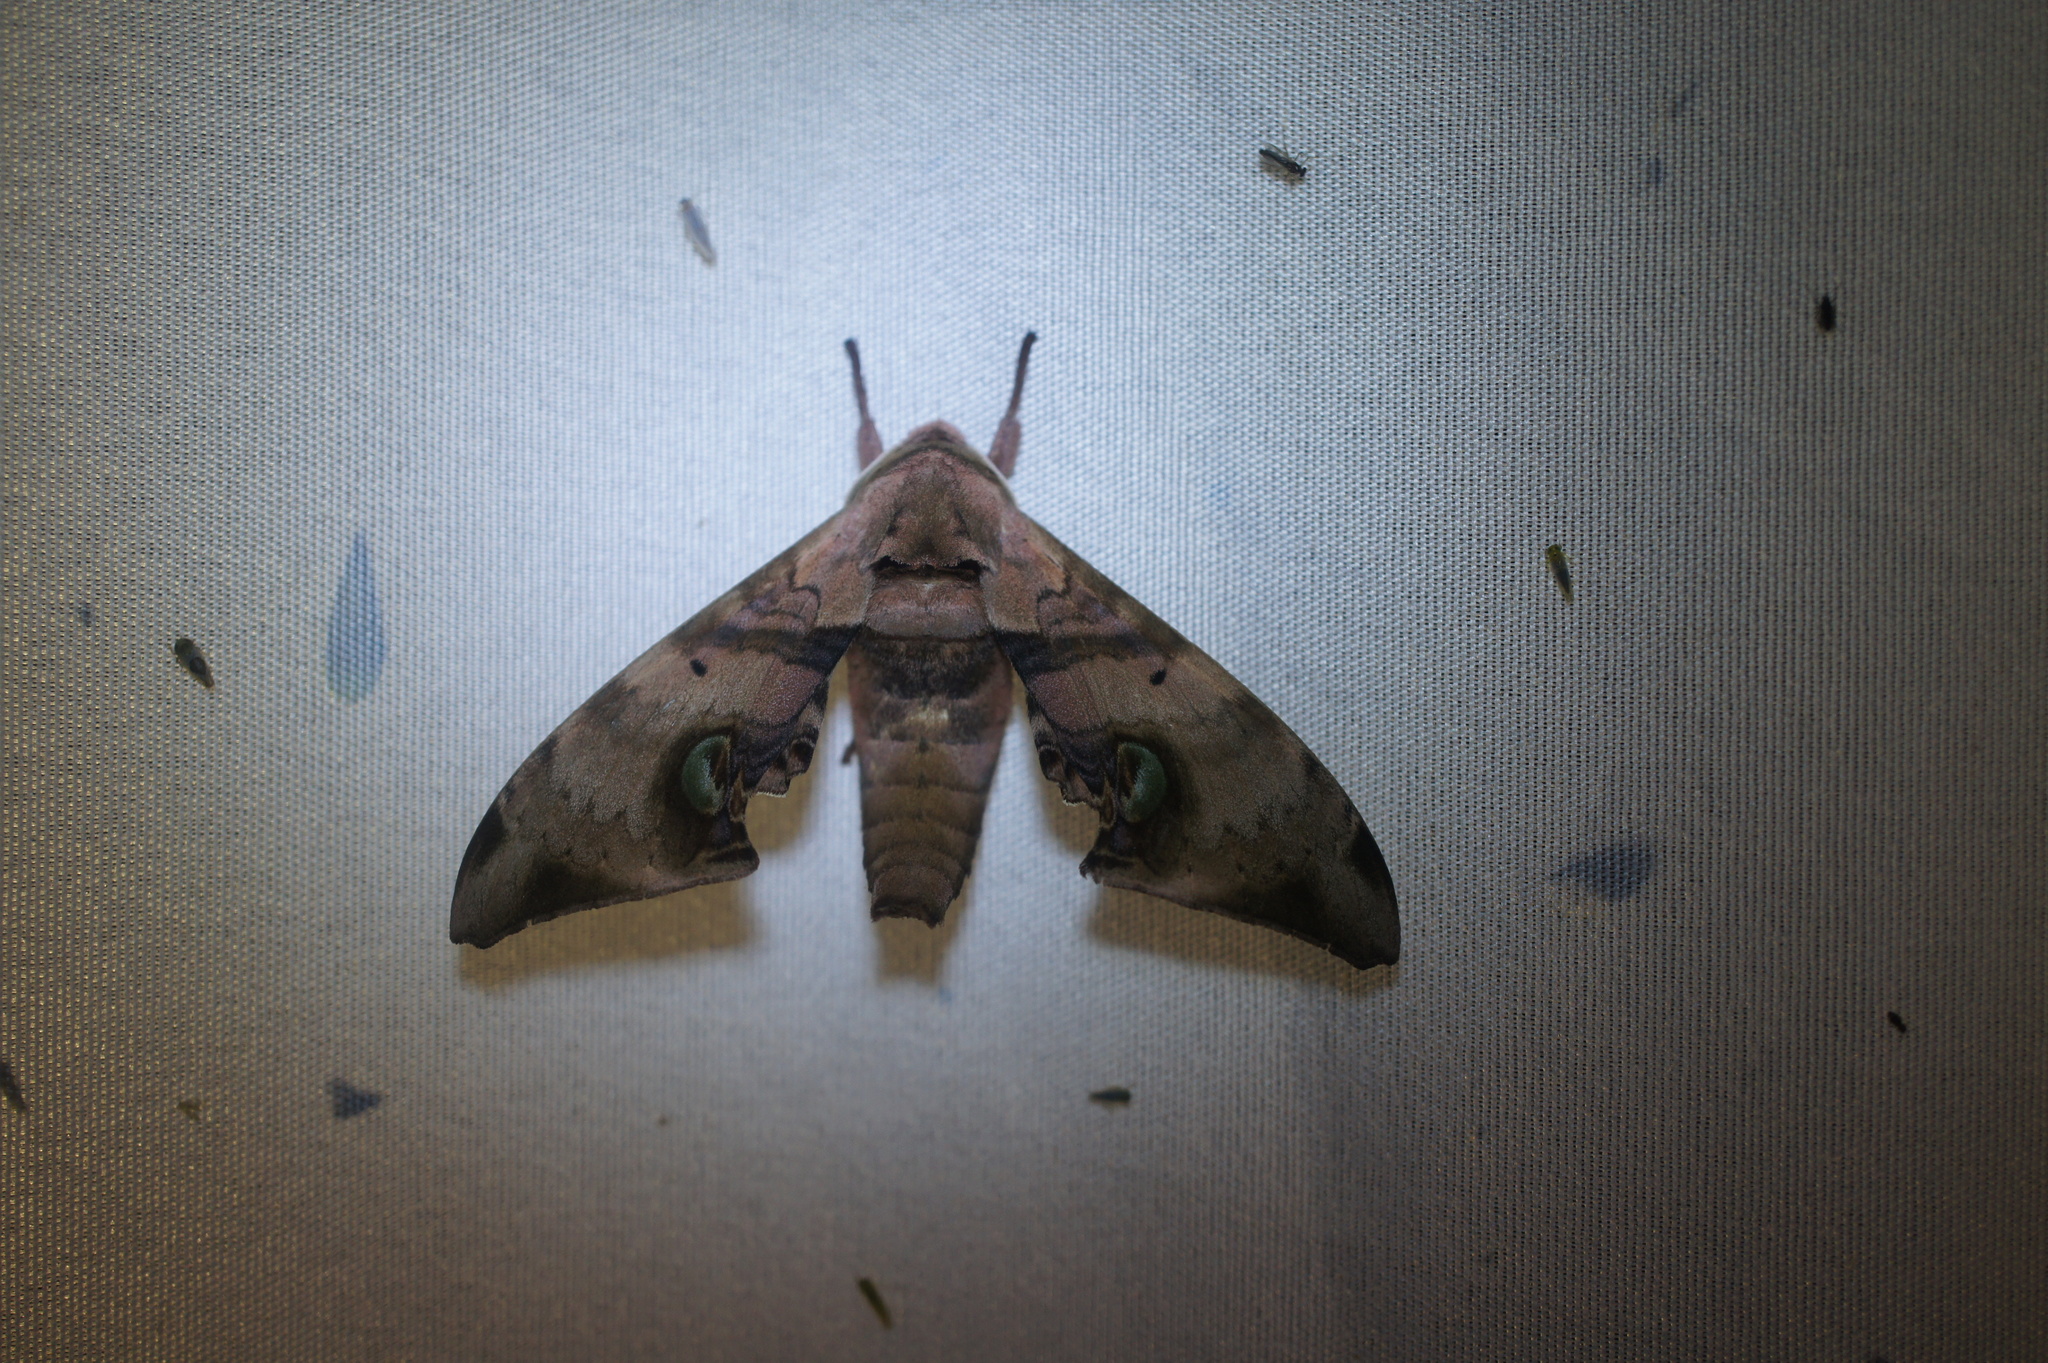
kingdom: Animalia
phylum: Arthropoda
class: Insecta
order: Lepidoptera
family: Sphingidae
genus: Daphnusa
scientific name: Daphnusa ocellaris
